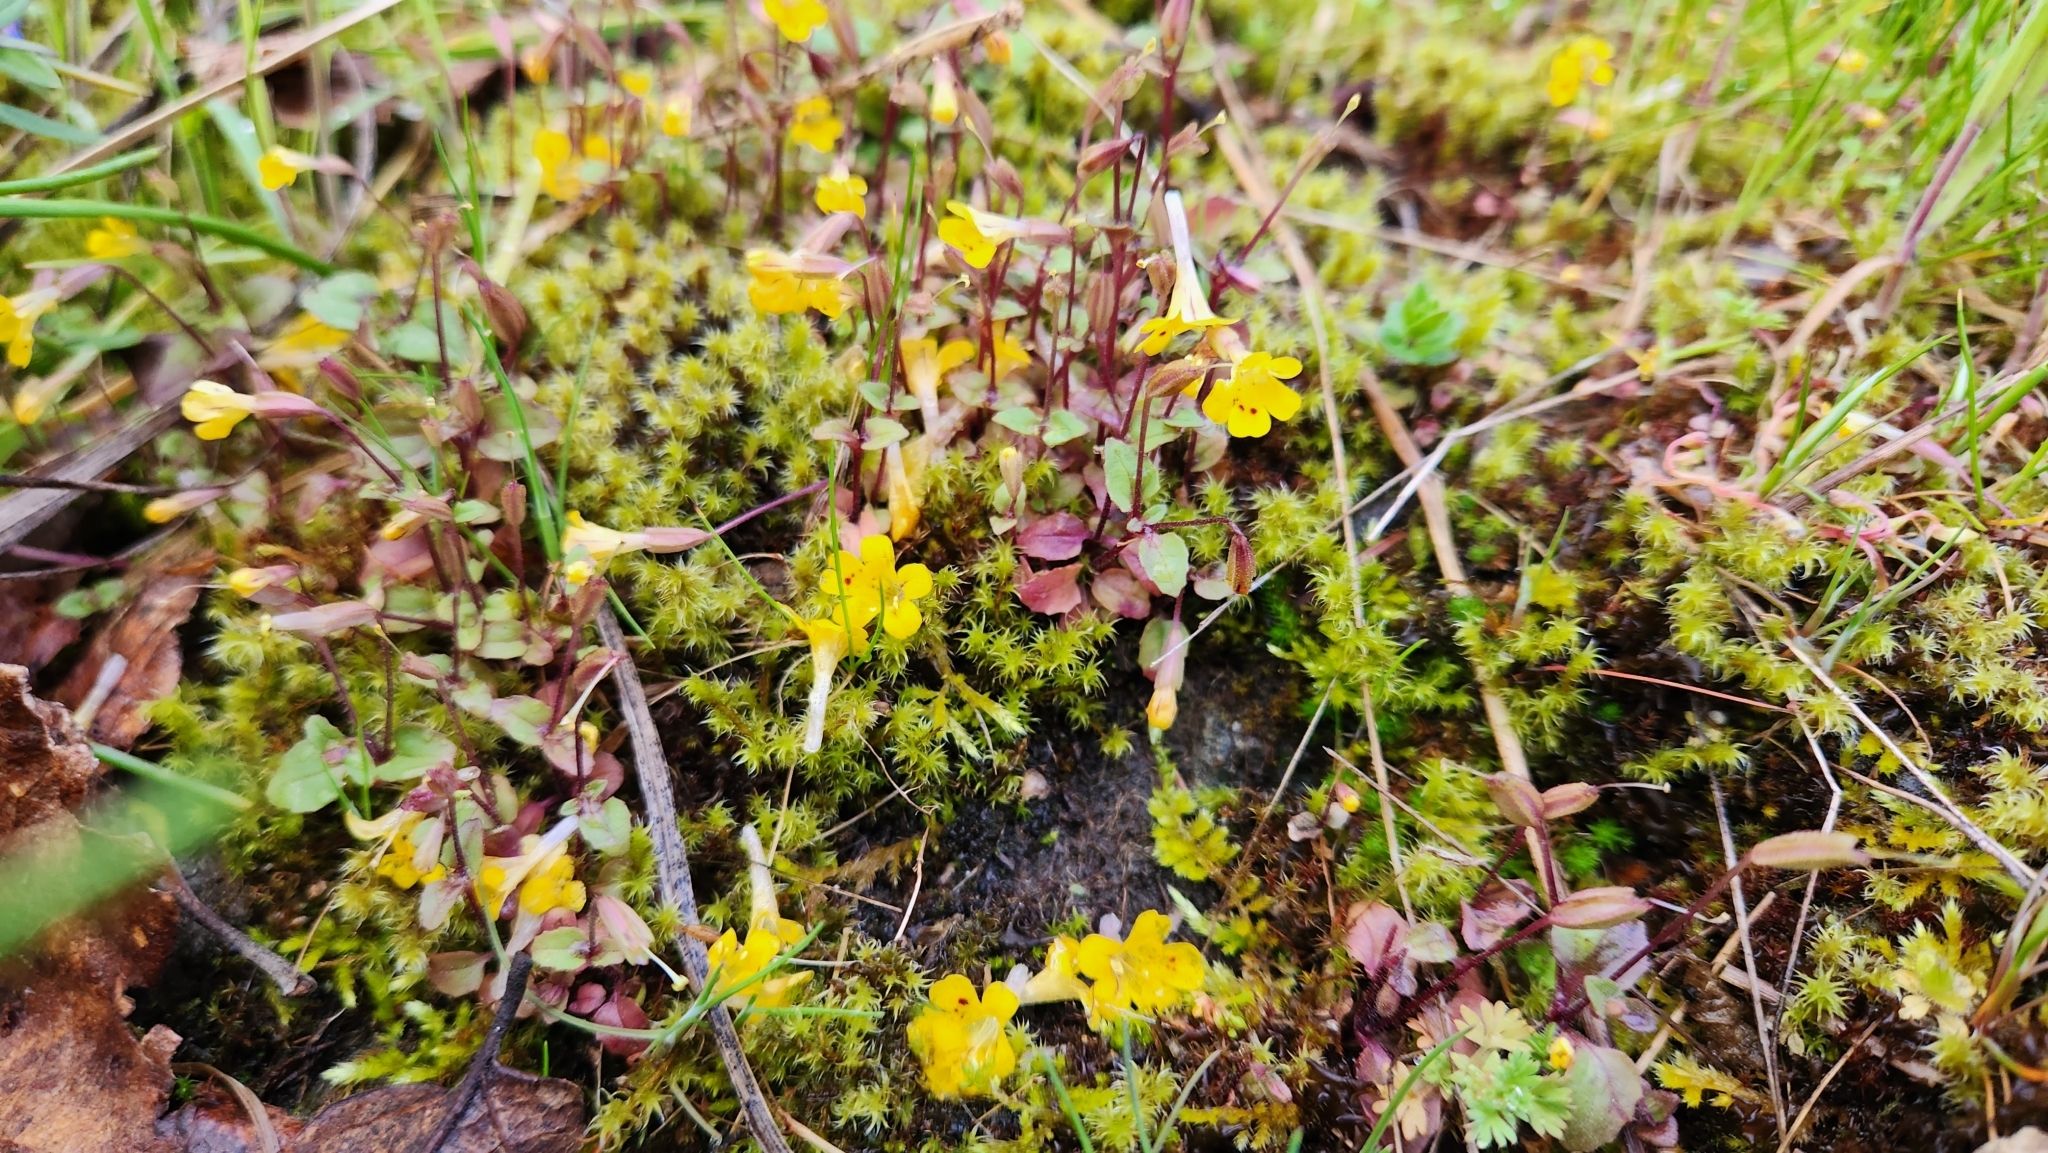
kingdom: Plantae
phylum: Tracheophyta
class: Magnoliopsida
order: Lamiales
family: Phrymaceae
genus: Erythranthe
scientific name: Erythranthe alsinoides
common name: Chickweed monkeyflower
